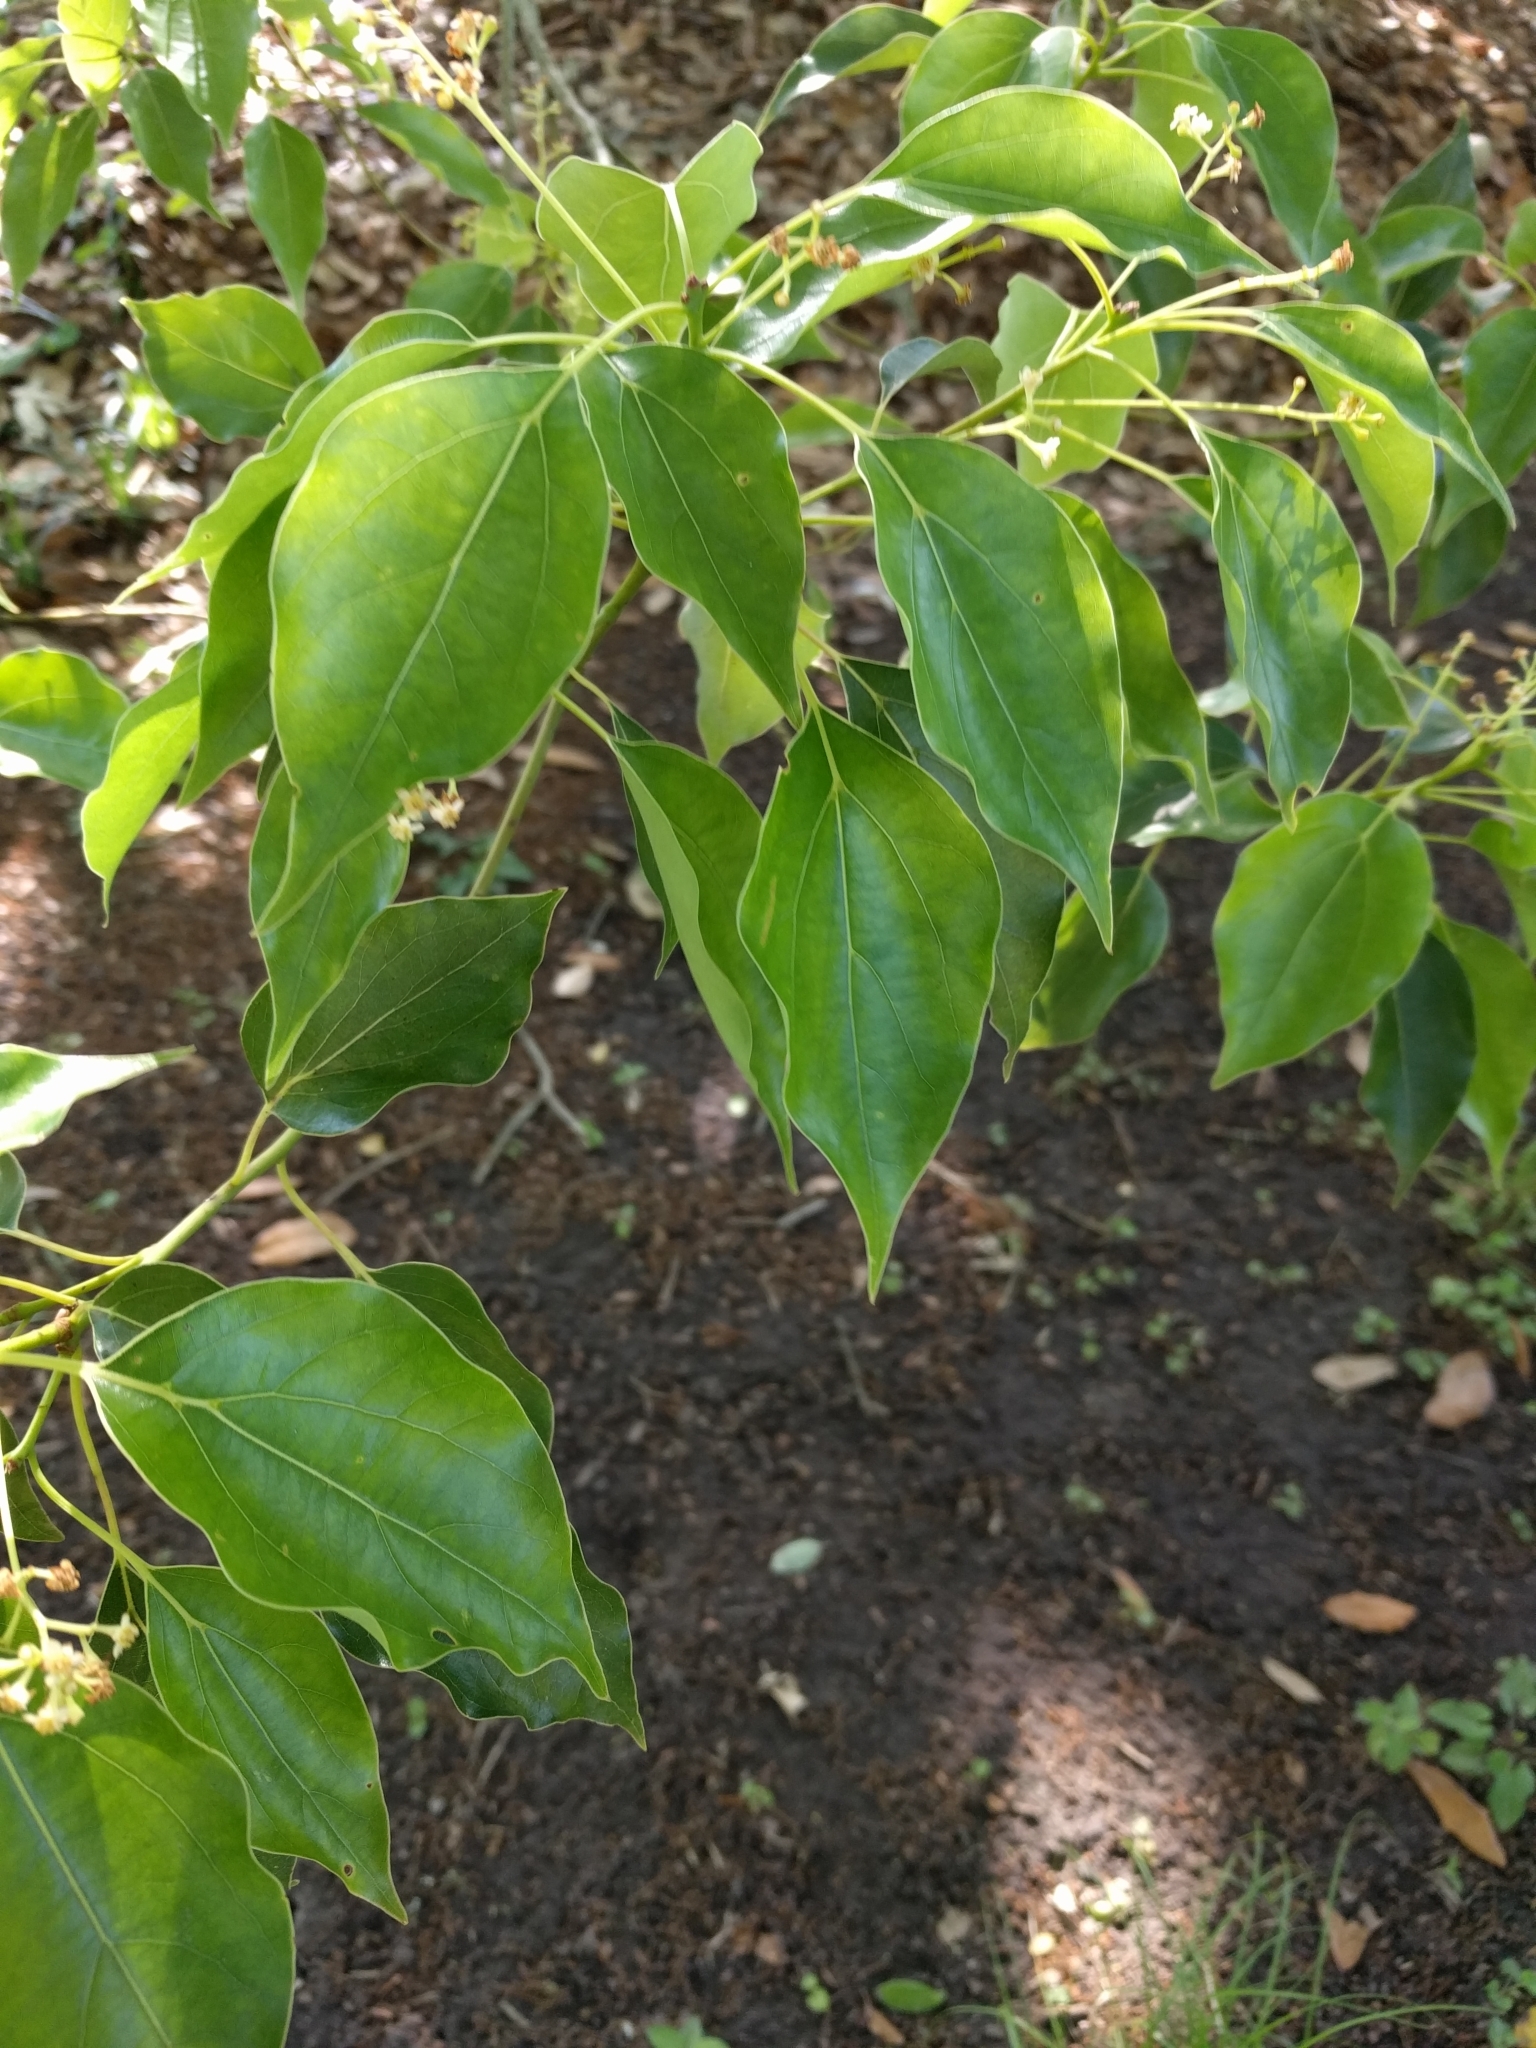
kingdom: Plantae
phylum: Tracheophyta
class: Magnoliopsida
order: Laurales
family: Lauraceae
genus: Cinnamomum
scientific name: Cinnamomum camphora
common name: Camphortree
